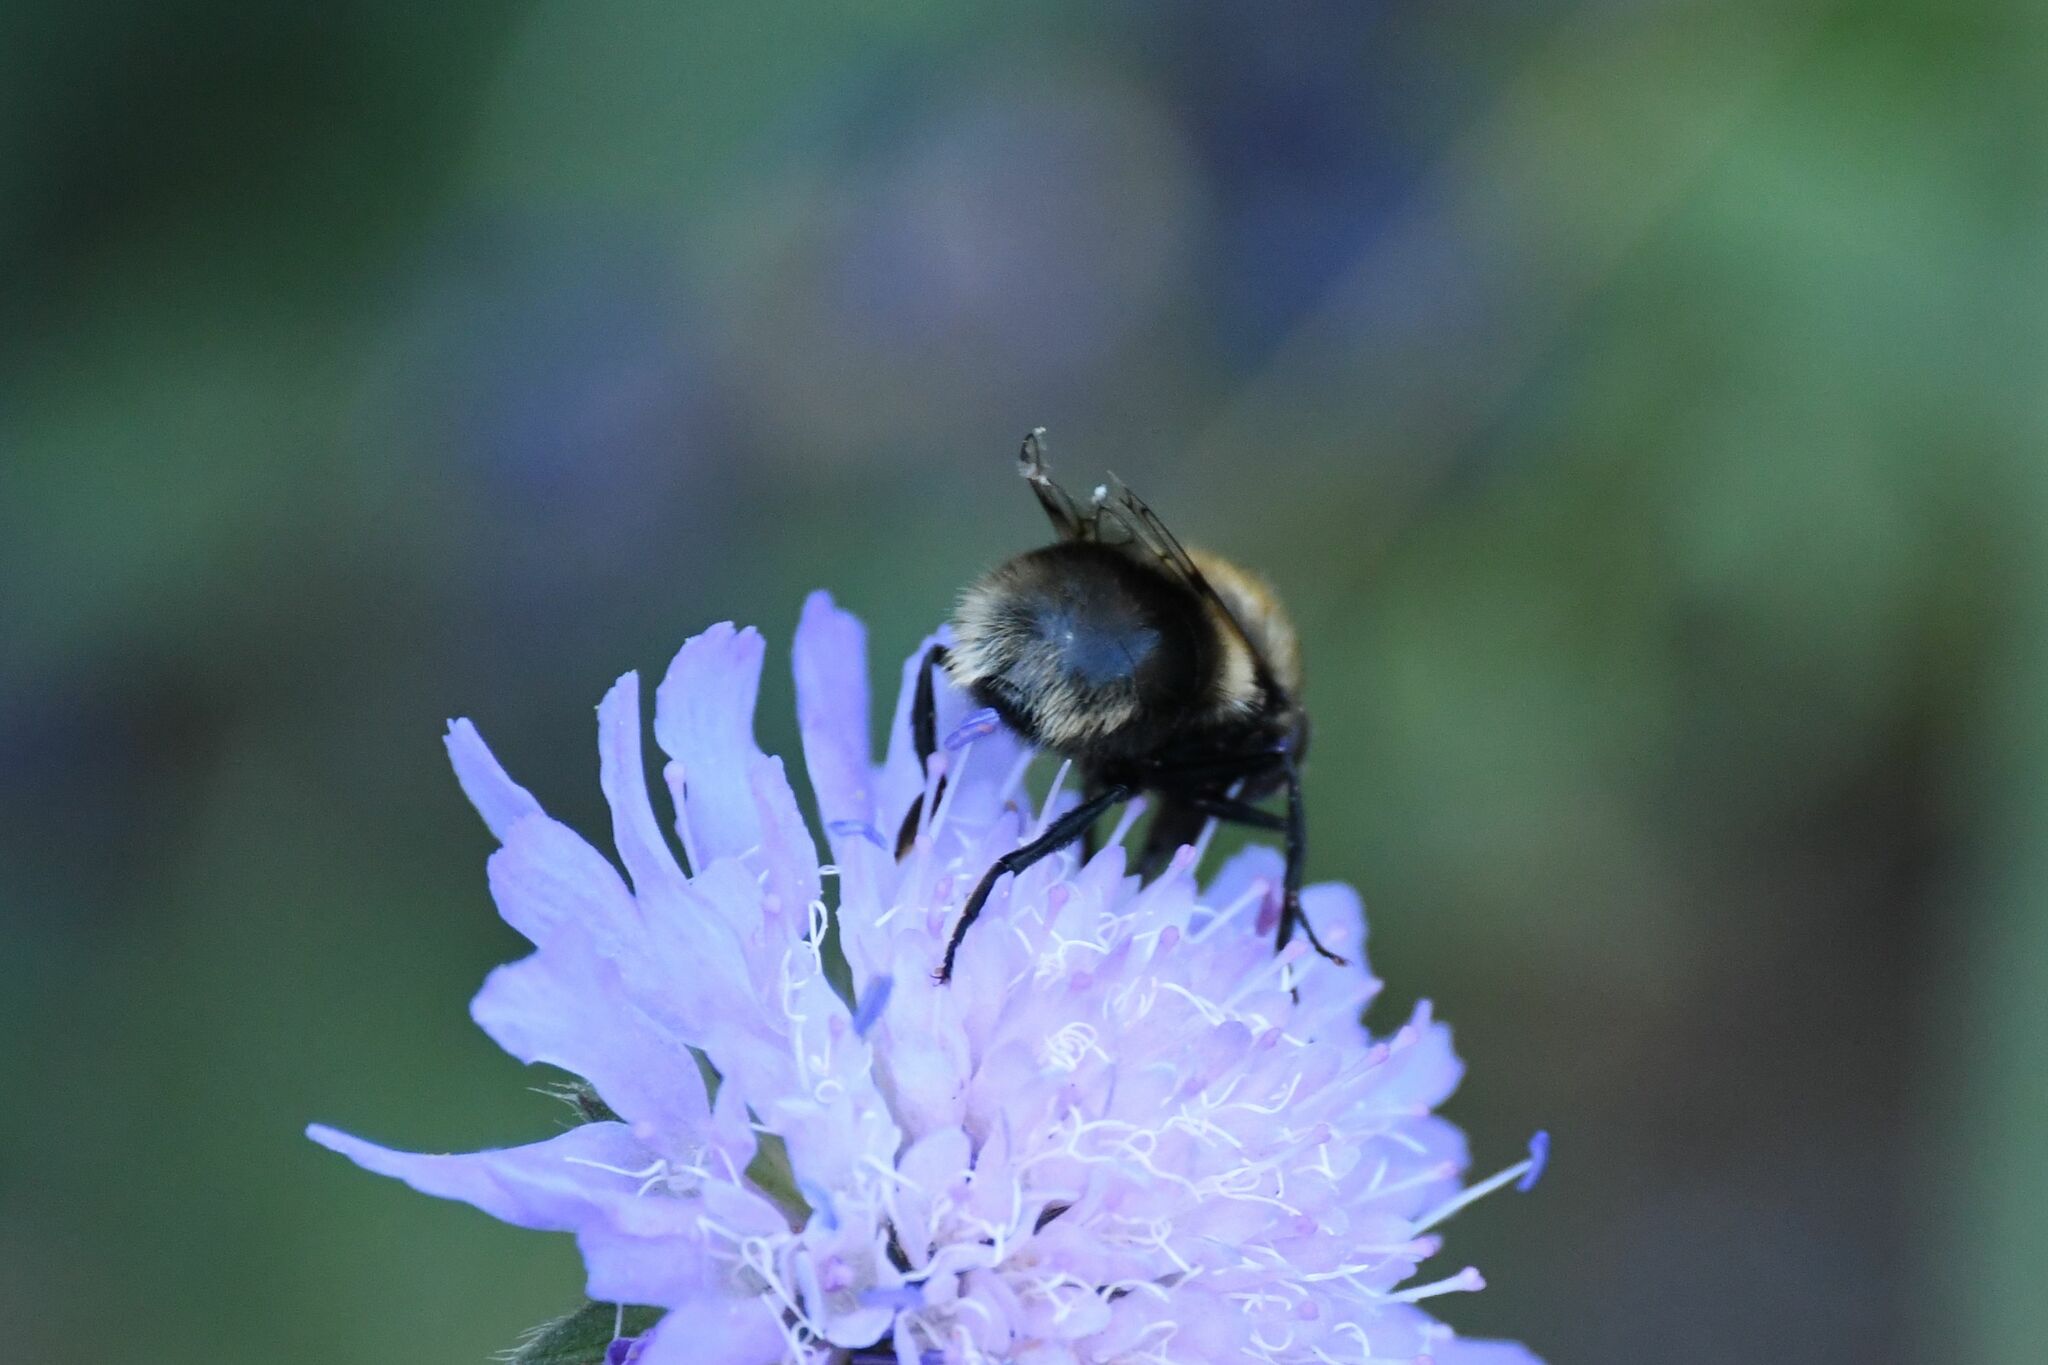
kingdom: Animalia
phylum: Arthropoda
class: Insecta
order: Diptera
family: Syrphidae
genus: Volucella
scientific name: Volucella bombylans
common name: Bumble bee hover fly
